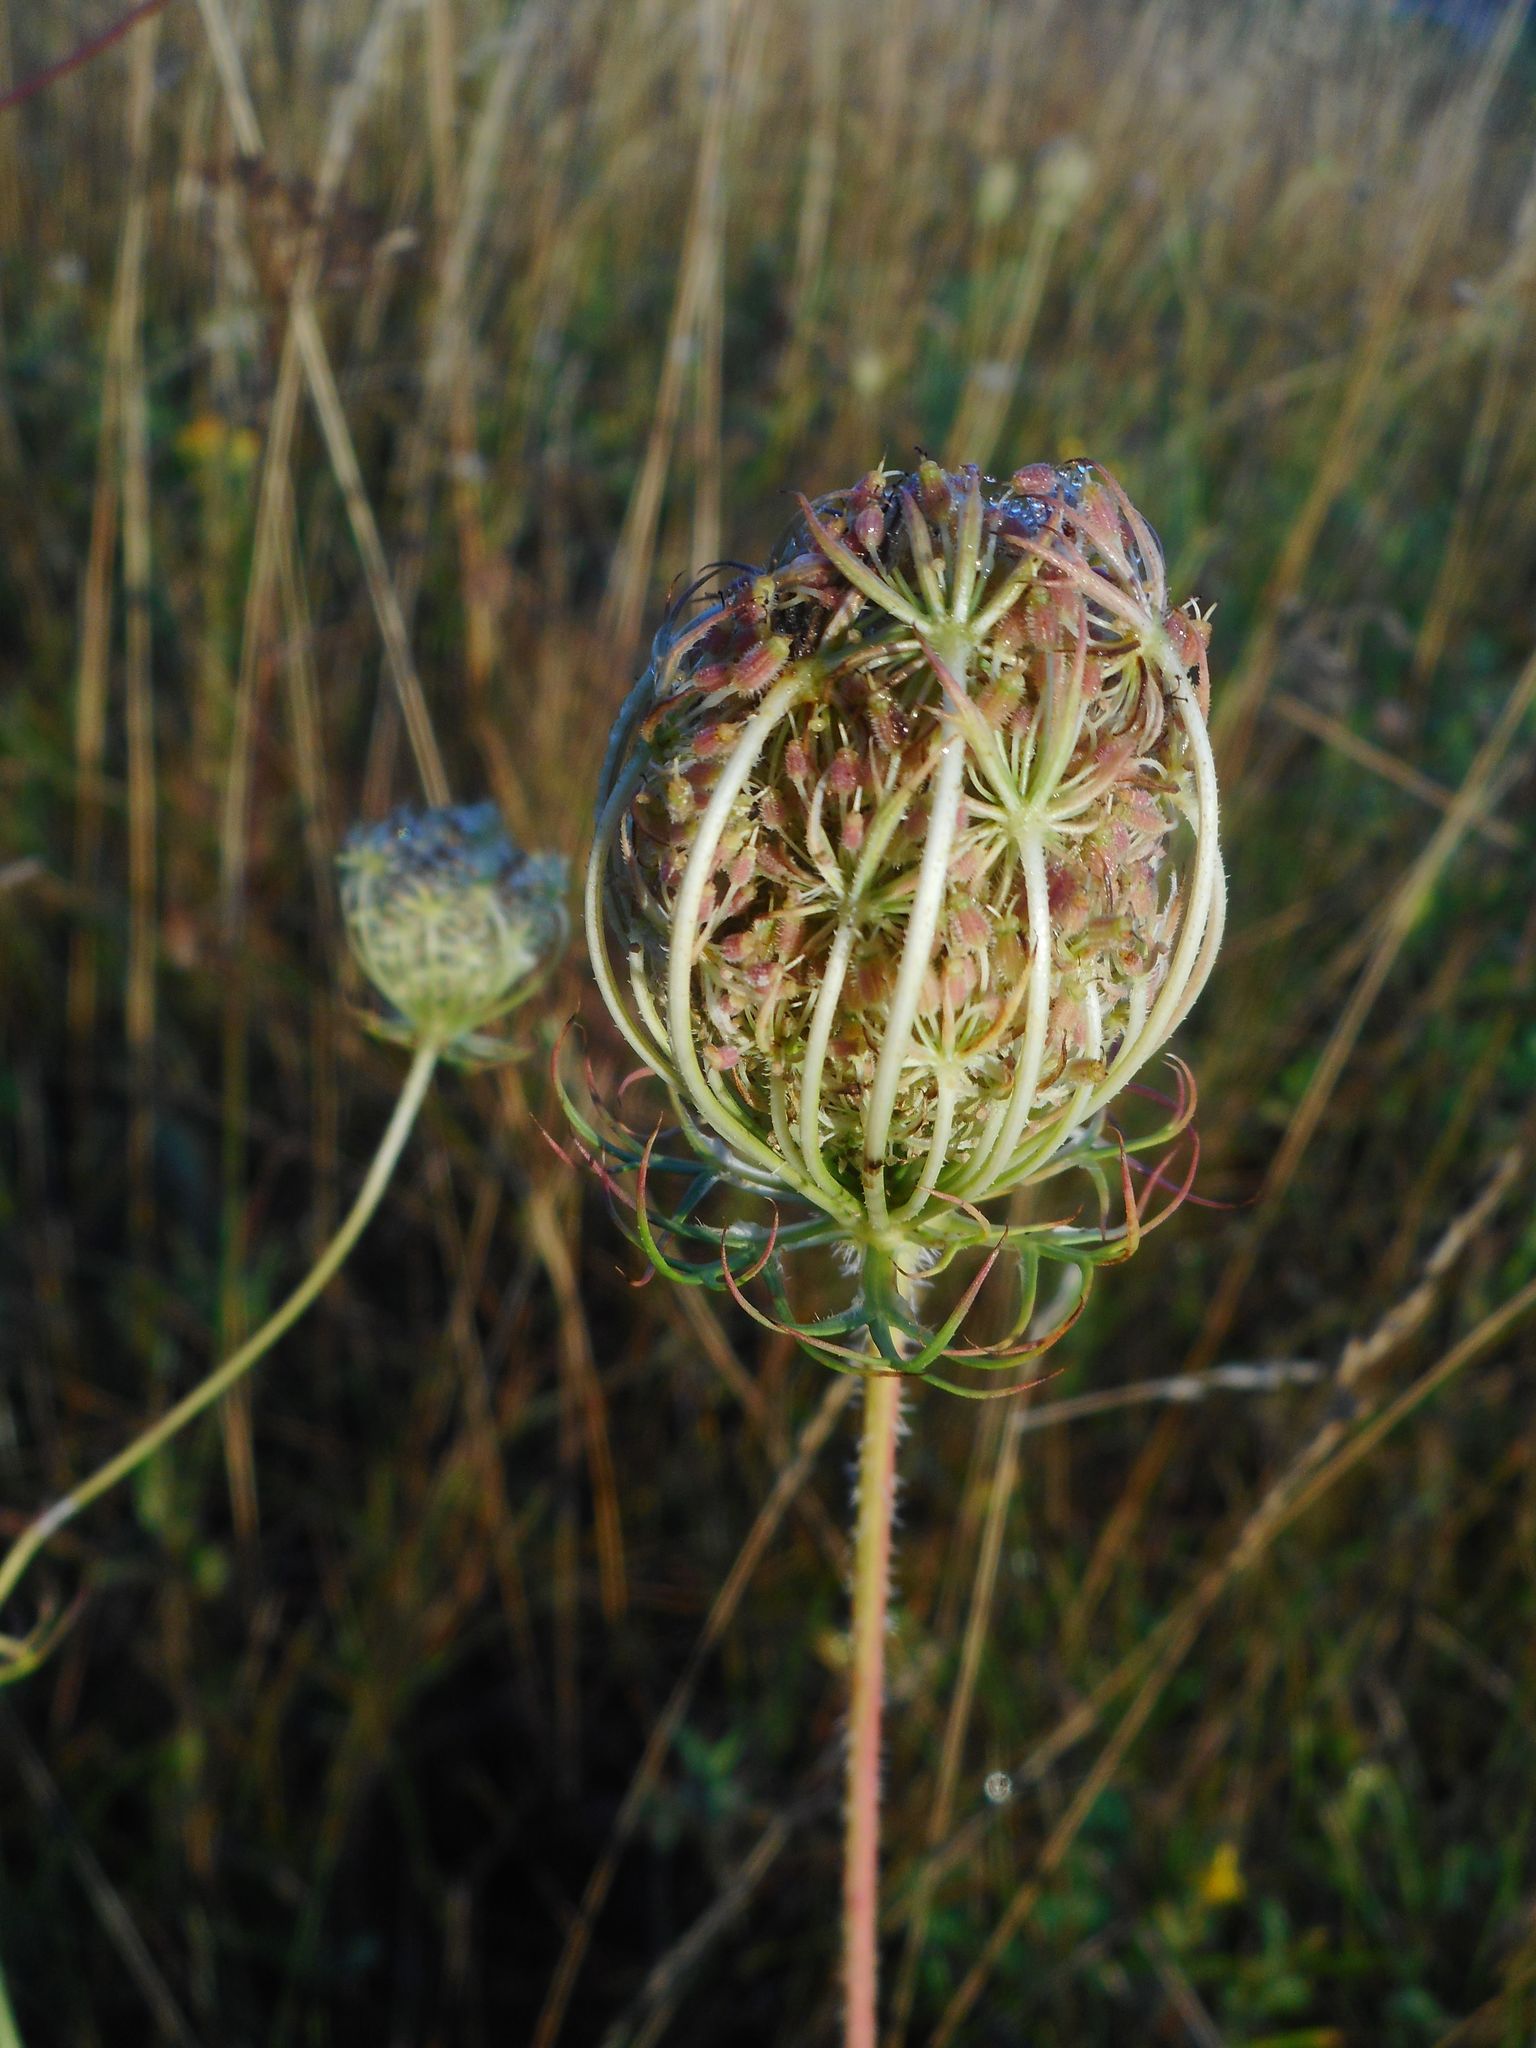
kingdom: Plantae
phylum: Tracheophyta
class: Magnoliopsida
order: Apiales
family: Apiaceae
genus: Daucus
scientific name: Daucus carota
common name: Wild carrot
